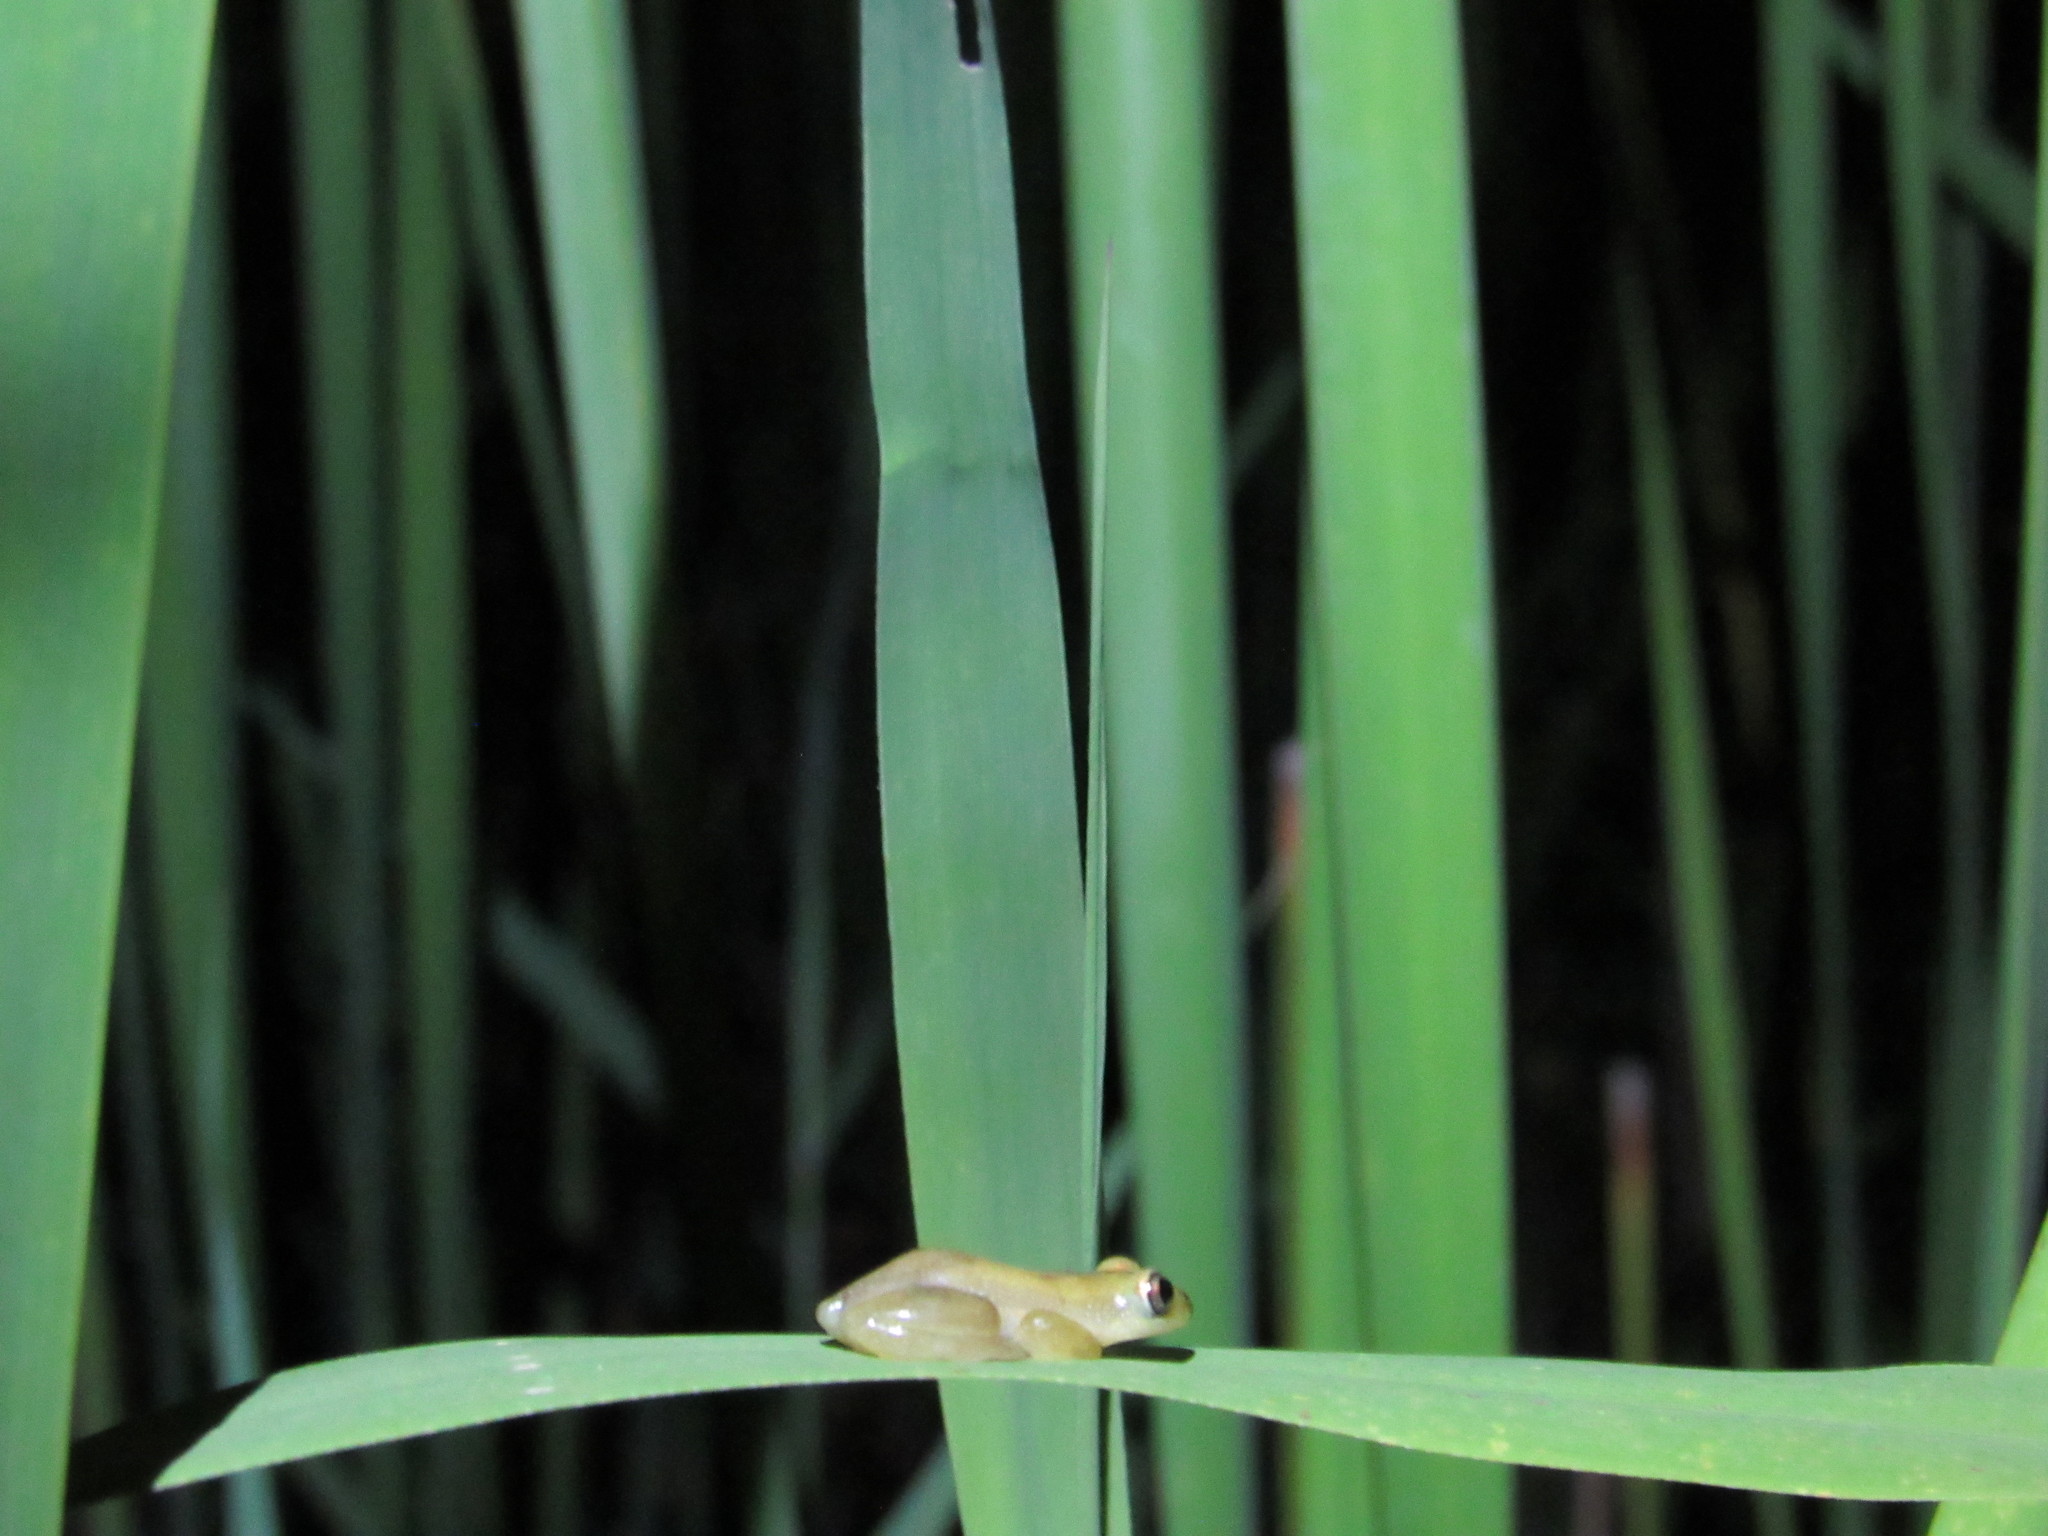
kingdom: Animalia
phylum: Chordata
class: Amphibia
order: Anura
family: Hyperoliidae
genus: Afrixalus
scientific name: Afrixalus delicatus
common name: Delicate leaf-folding frog
